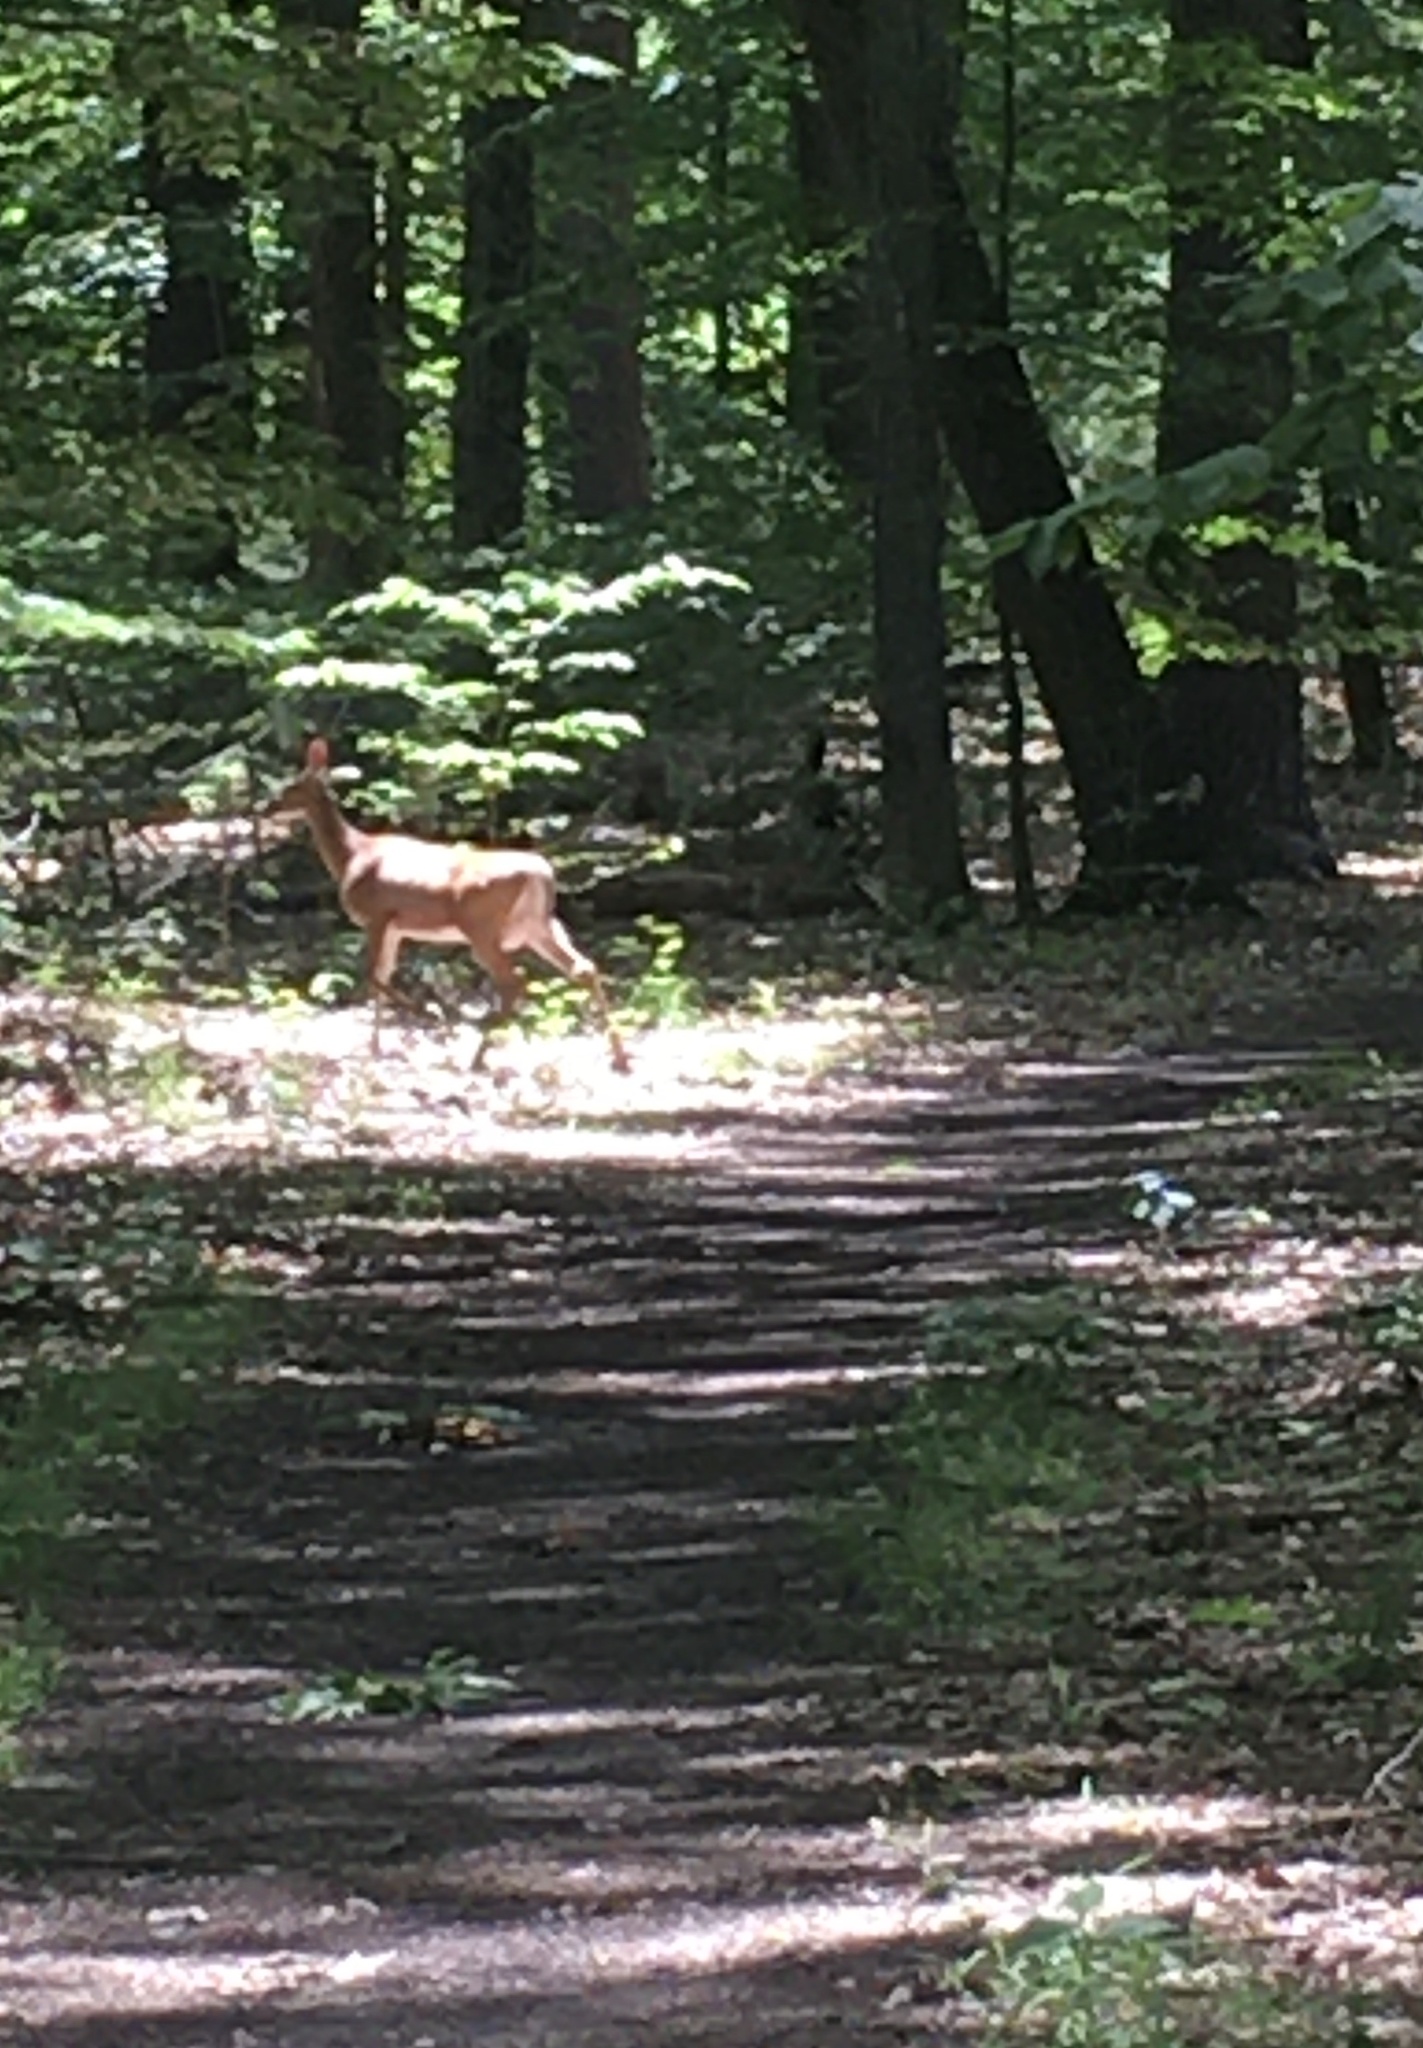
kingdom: Animalia
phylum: Chordata
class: Mammalia
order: Artiodactyla
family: Cervidae
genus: Odocoileus
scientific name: Odocoileus virginianus
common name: White-tailed deer
